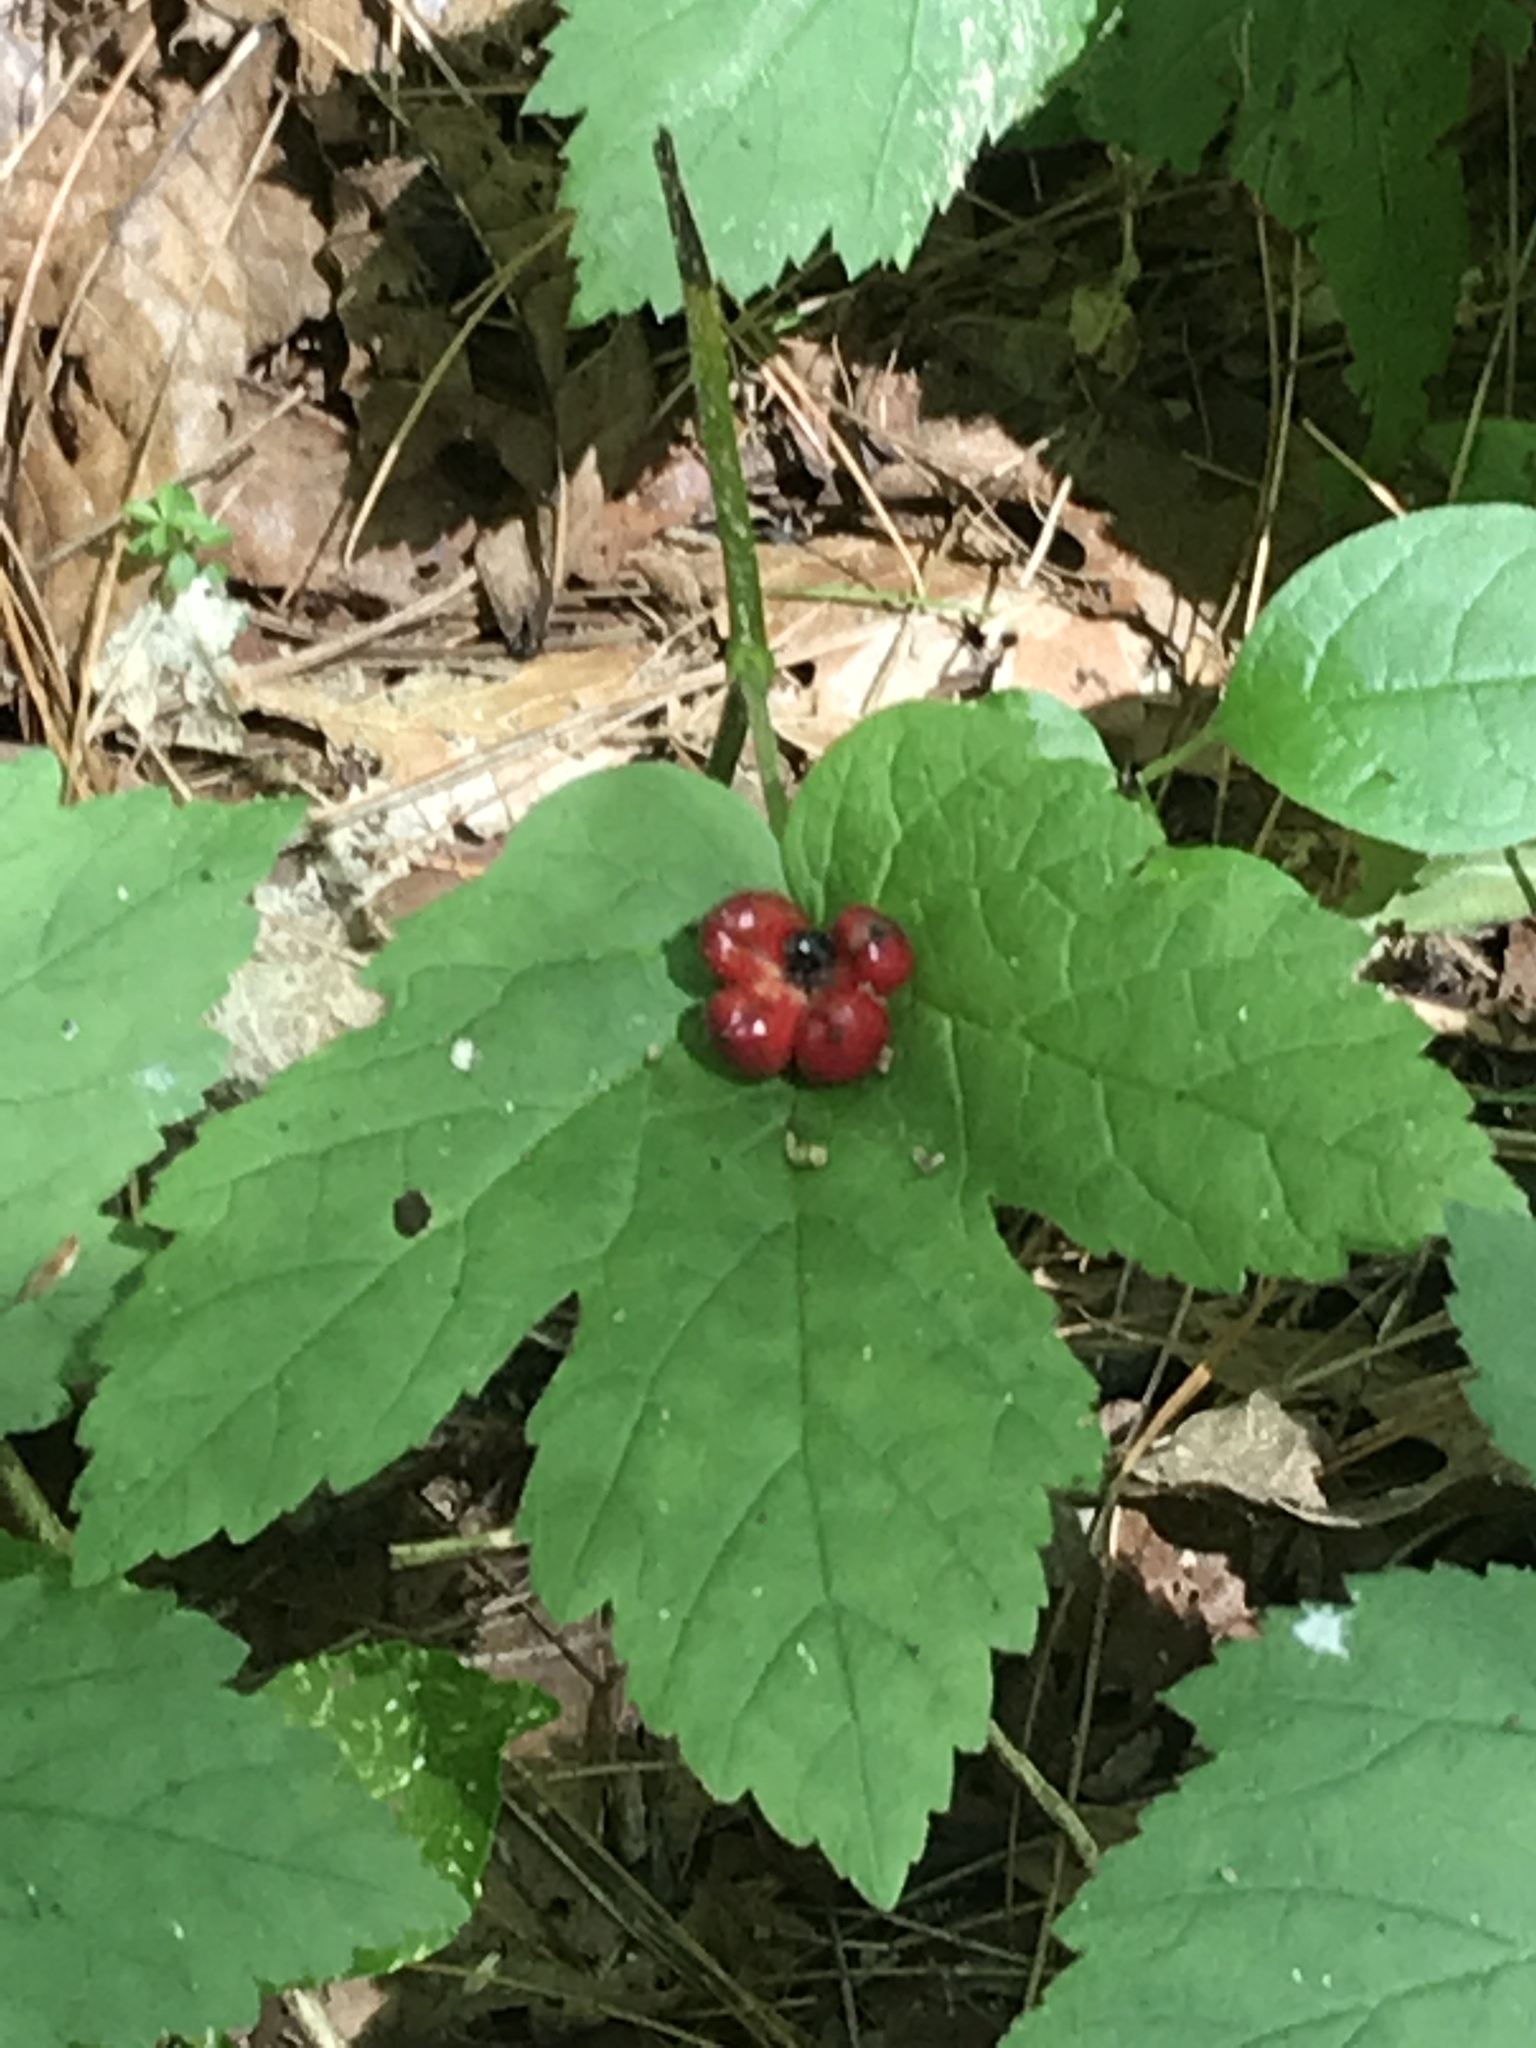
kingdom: Plantae
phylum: Tracheophyta
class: Magnoliopsida
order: Ranunculales
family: Ranunculaceae
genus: Hydrastis
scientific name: Hydrastis canadensis
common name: Goldenseal
